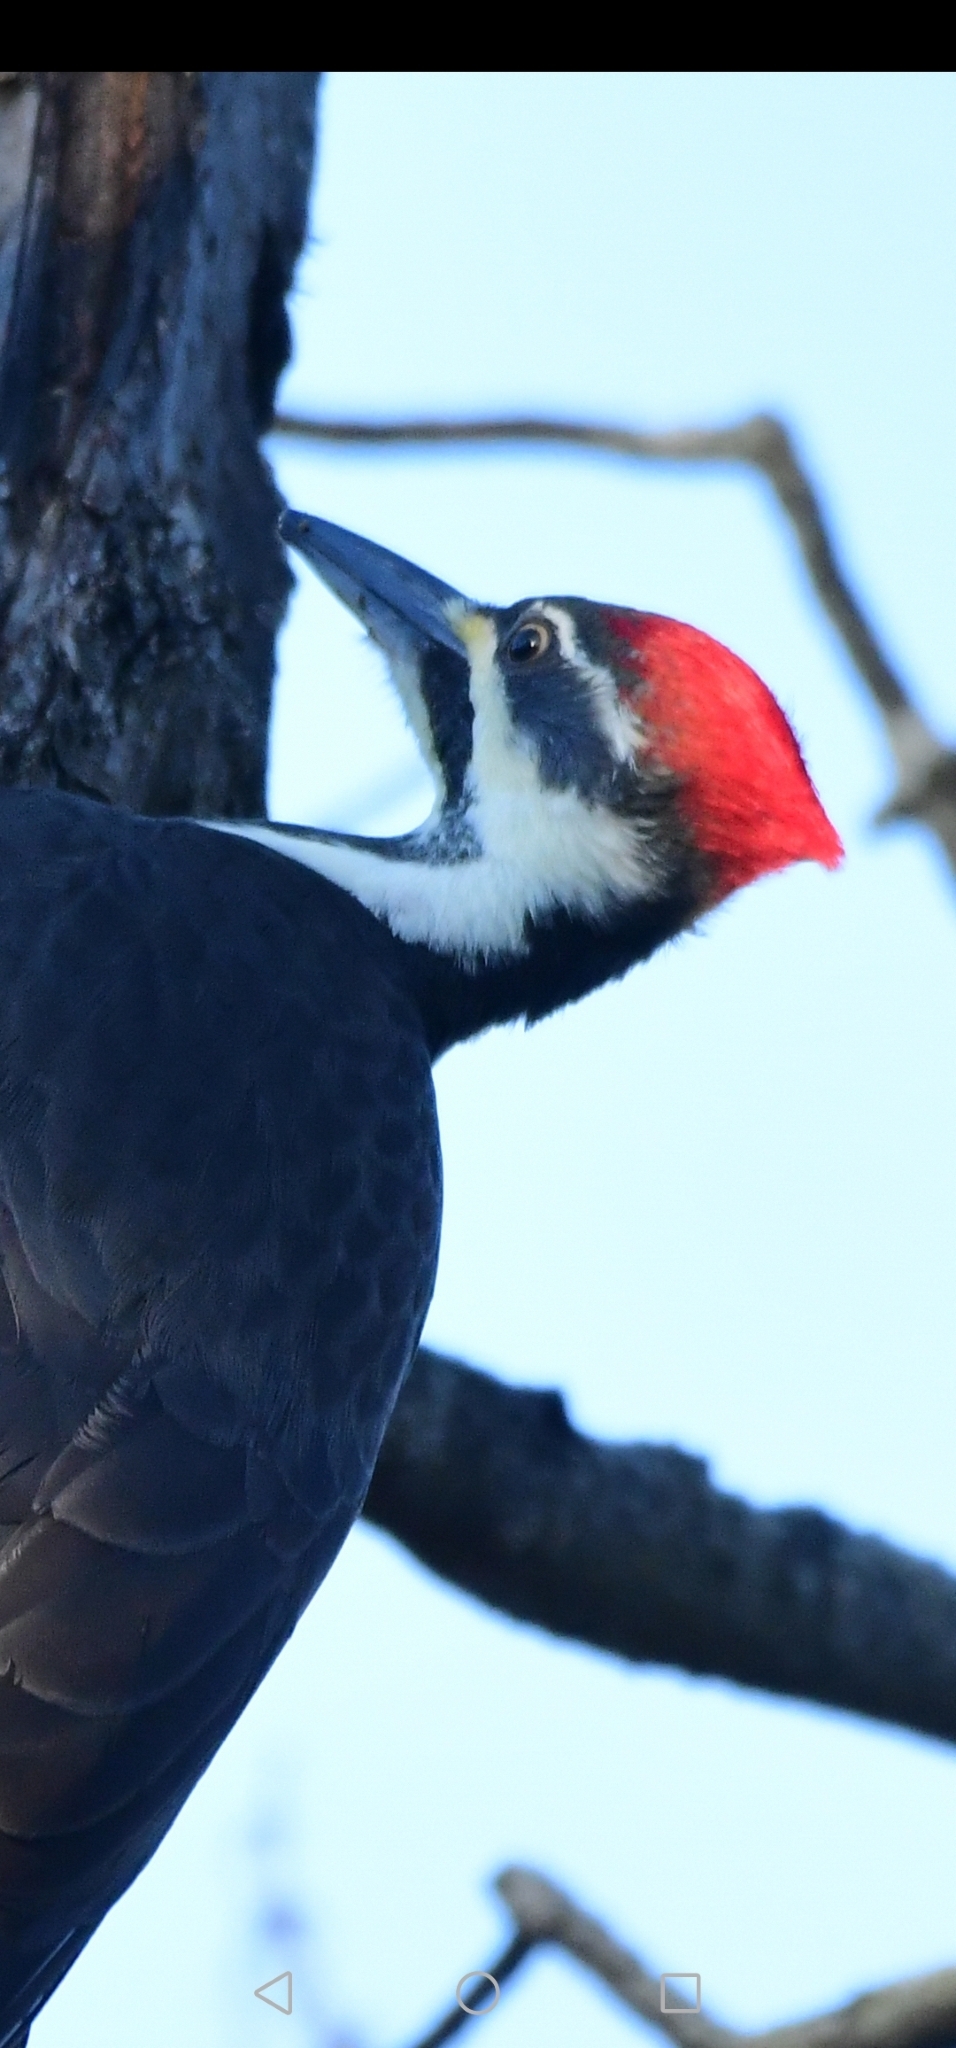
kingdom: Animalia
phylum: Chordata
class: Aves
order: Piciformes
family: Picidae
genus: Dryocopus
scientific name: Dryocopus pileatus
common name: Pileated woodpecker
